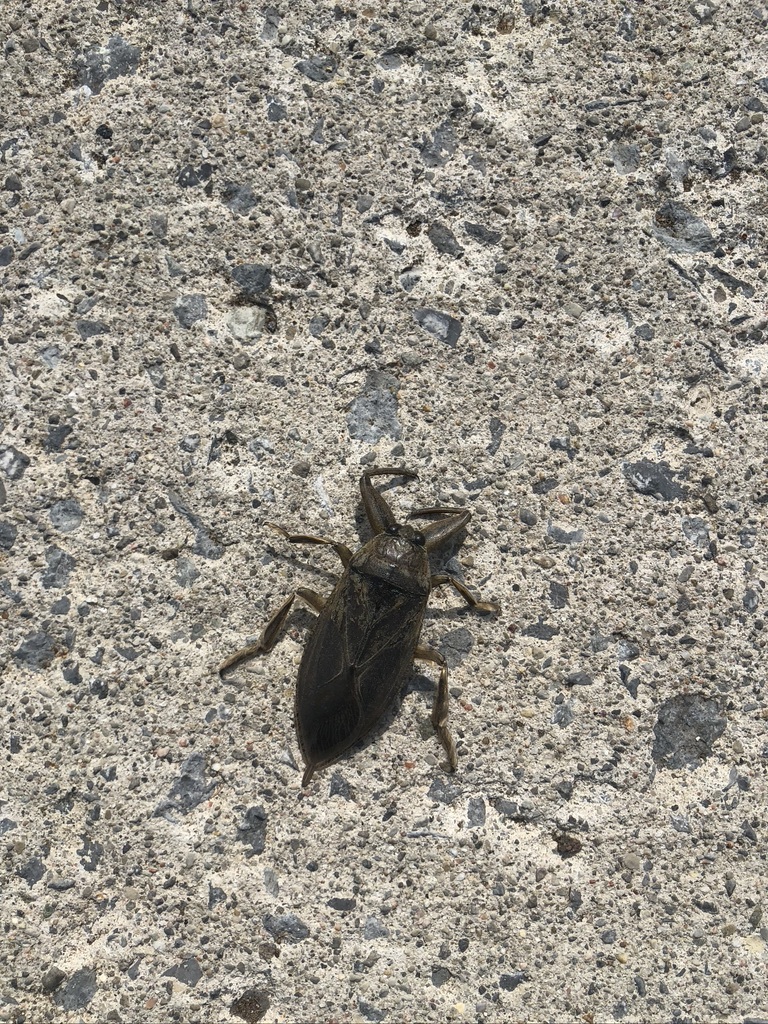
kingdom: Animalia
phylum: Arthropoda
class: Insecta
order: Hemiptera
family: Belostomatidae
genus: Lethocerus
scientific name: Lethocerus americanus
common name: Giant water bug
